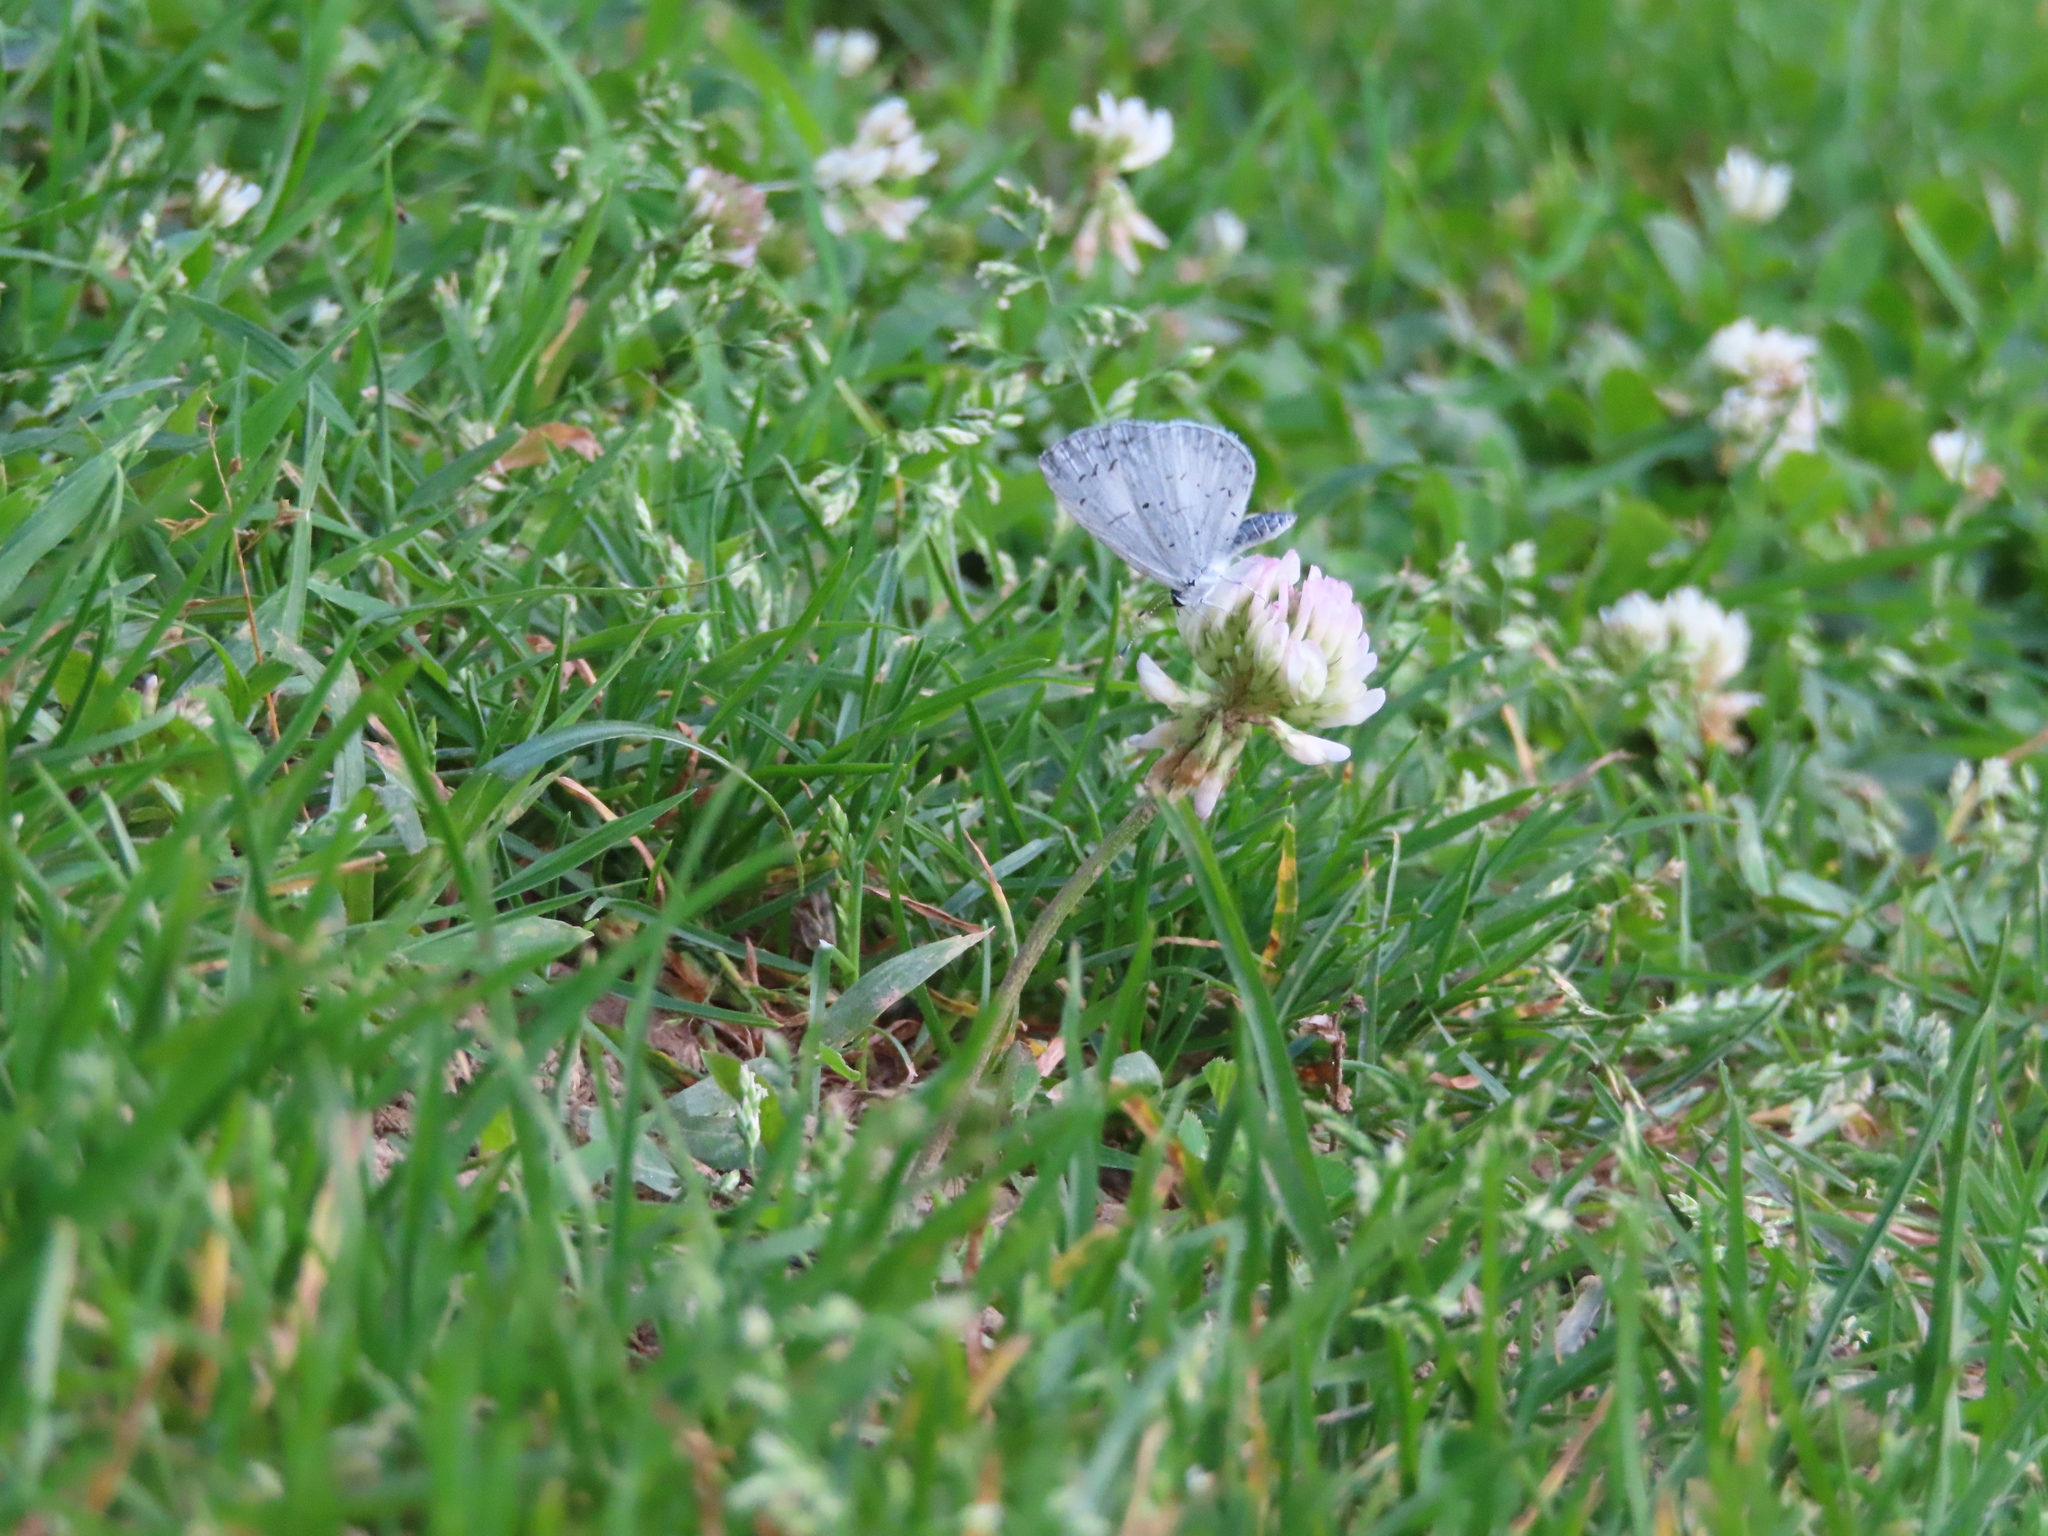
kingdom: Animalia
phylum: Arthropoda
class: Insecta
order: Lepidoptera
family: Lycaenidae
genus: Cyaniris
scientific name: Cyaniris neglecta
